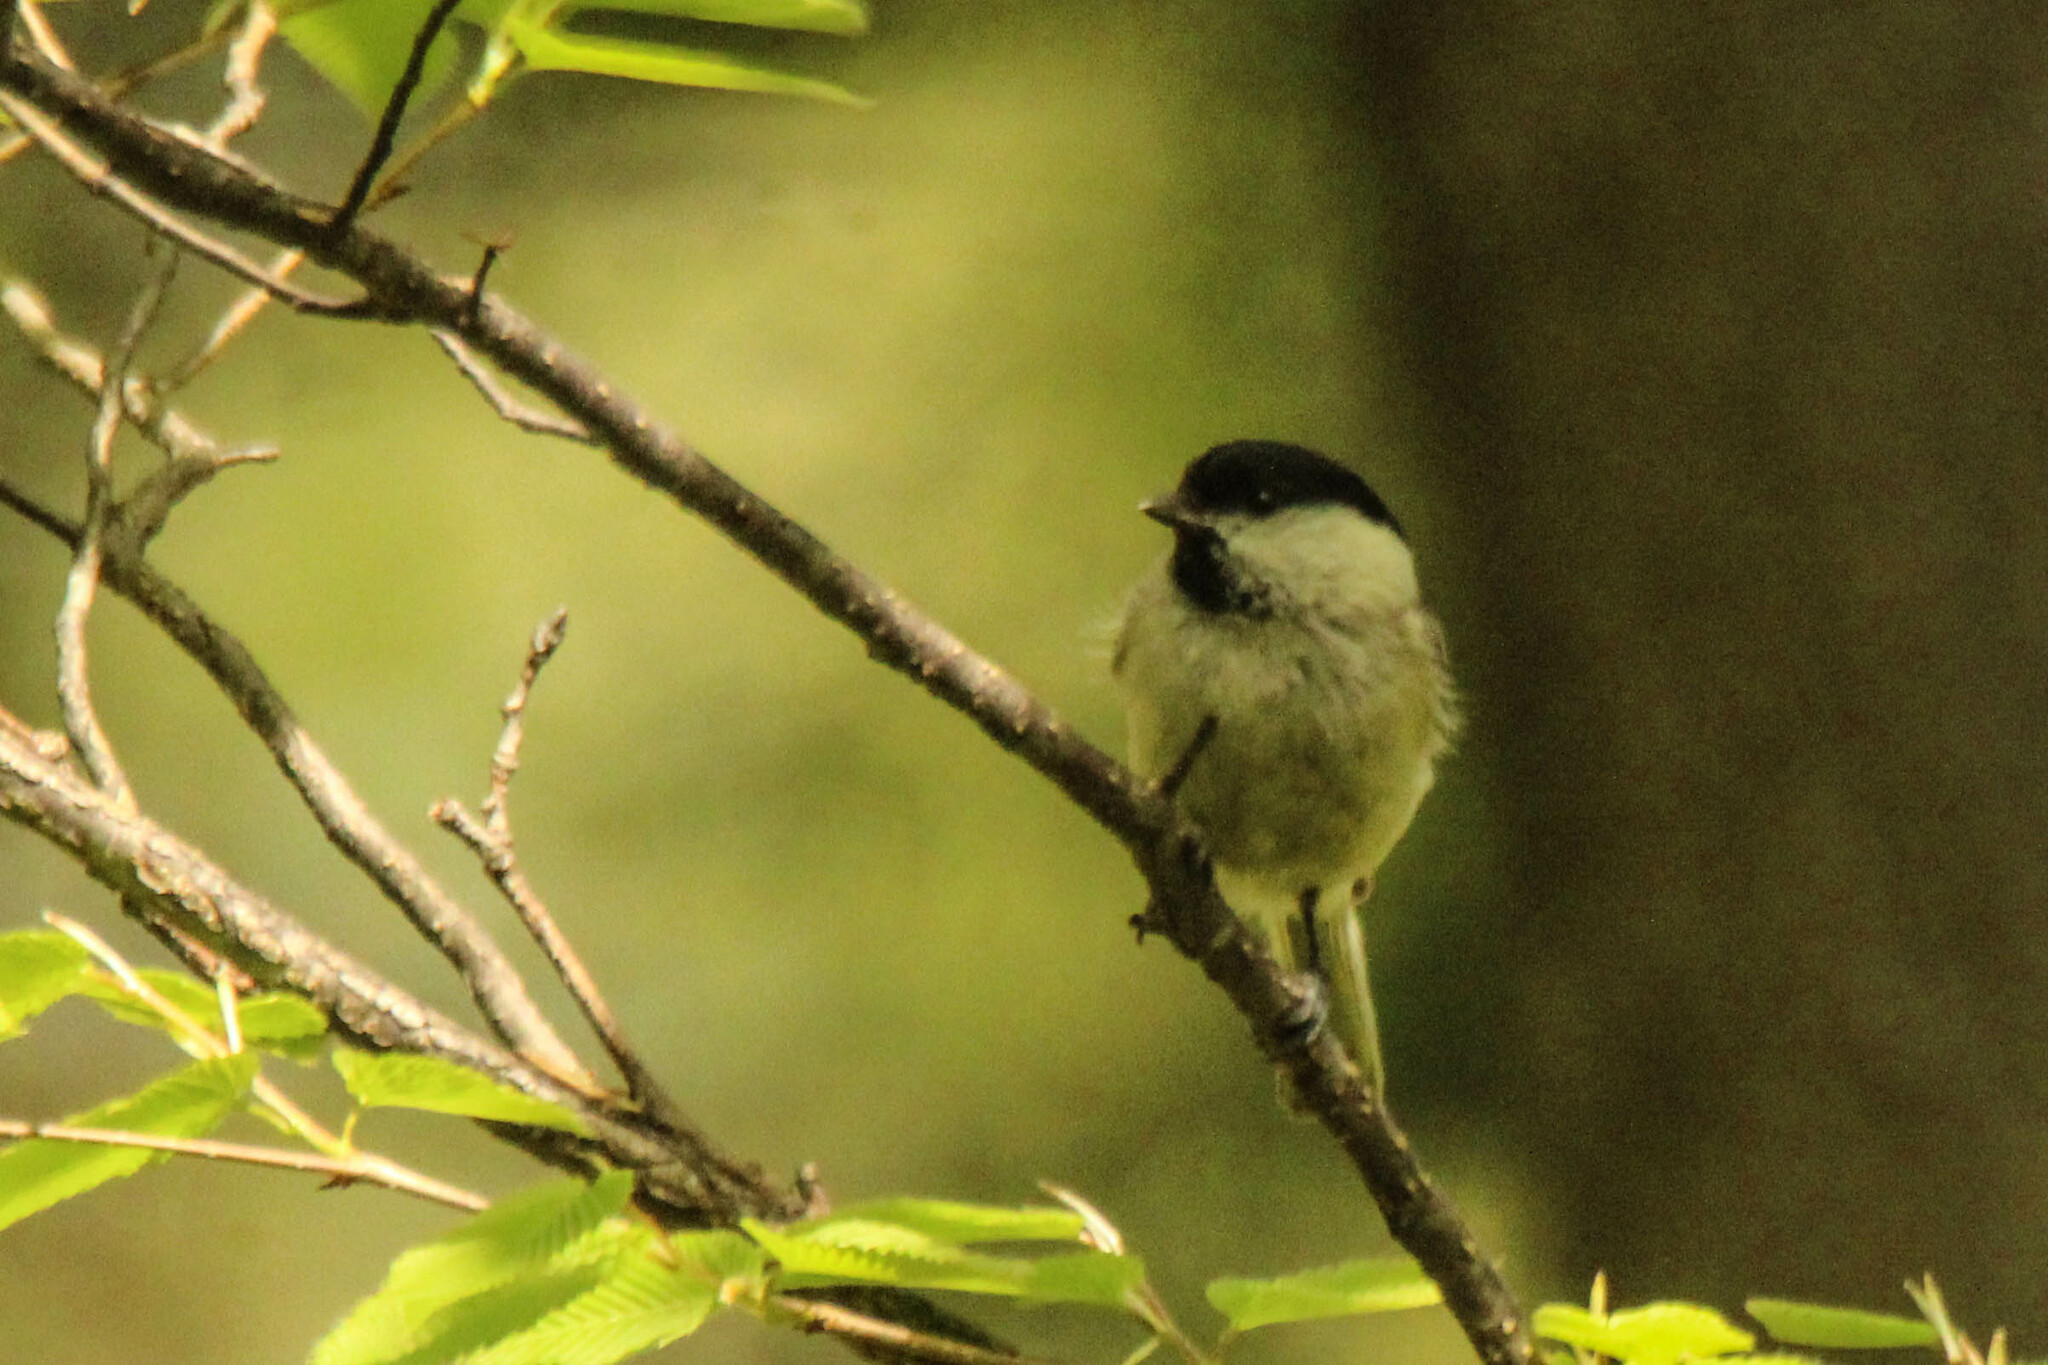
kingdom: Animalia
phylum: Chordata
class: Aves
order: Passeriformes
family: Paridae
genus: Poecile
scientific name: Poecile palustris
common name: Marsh tit
